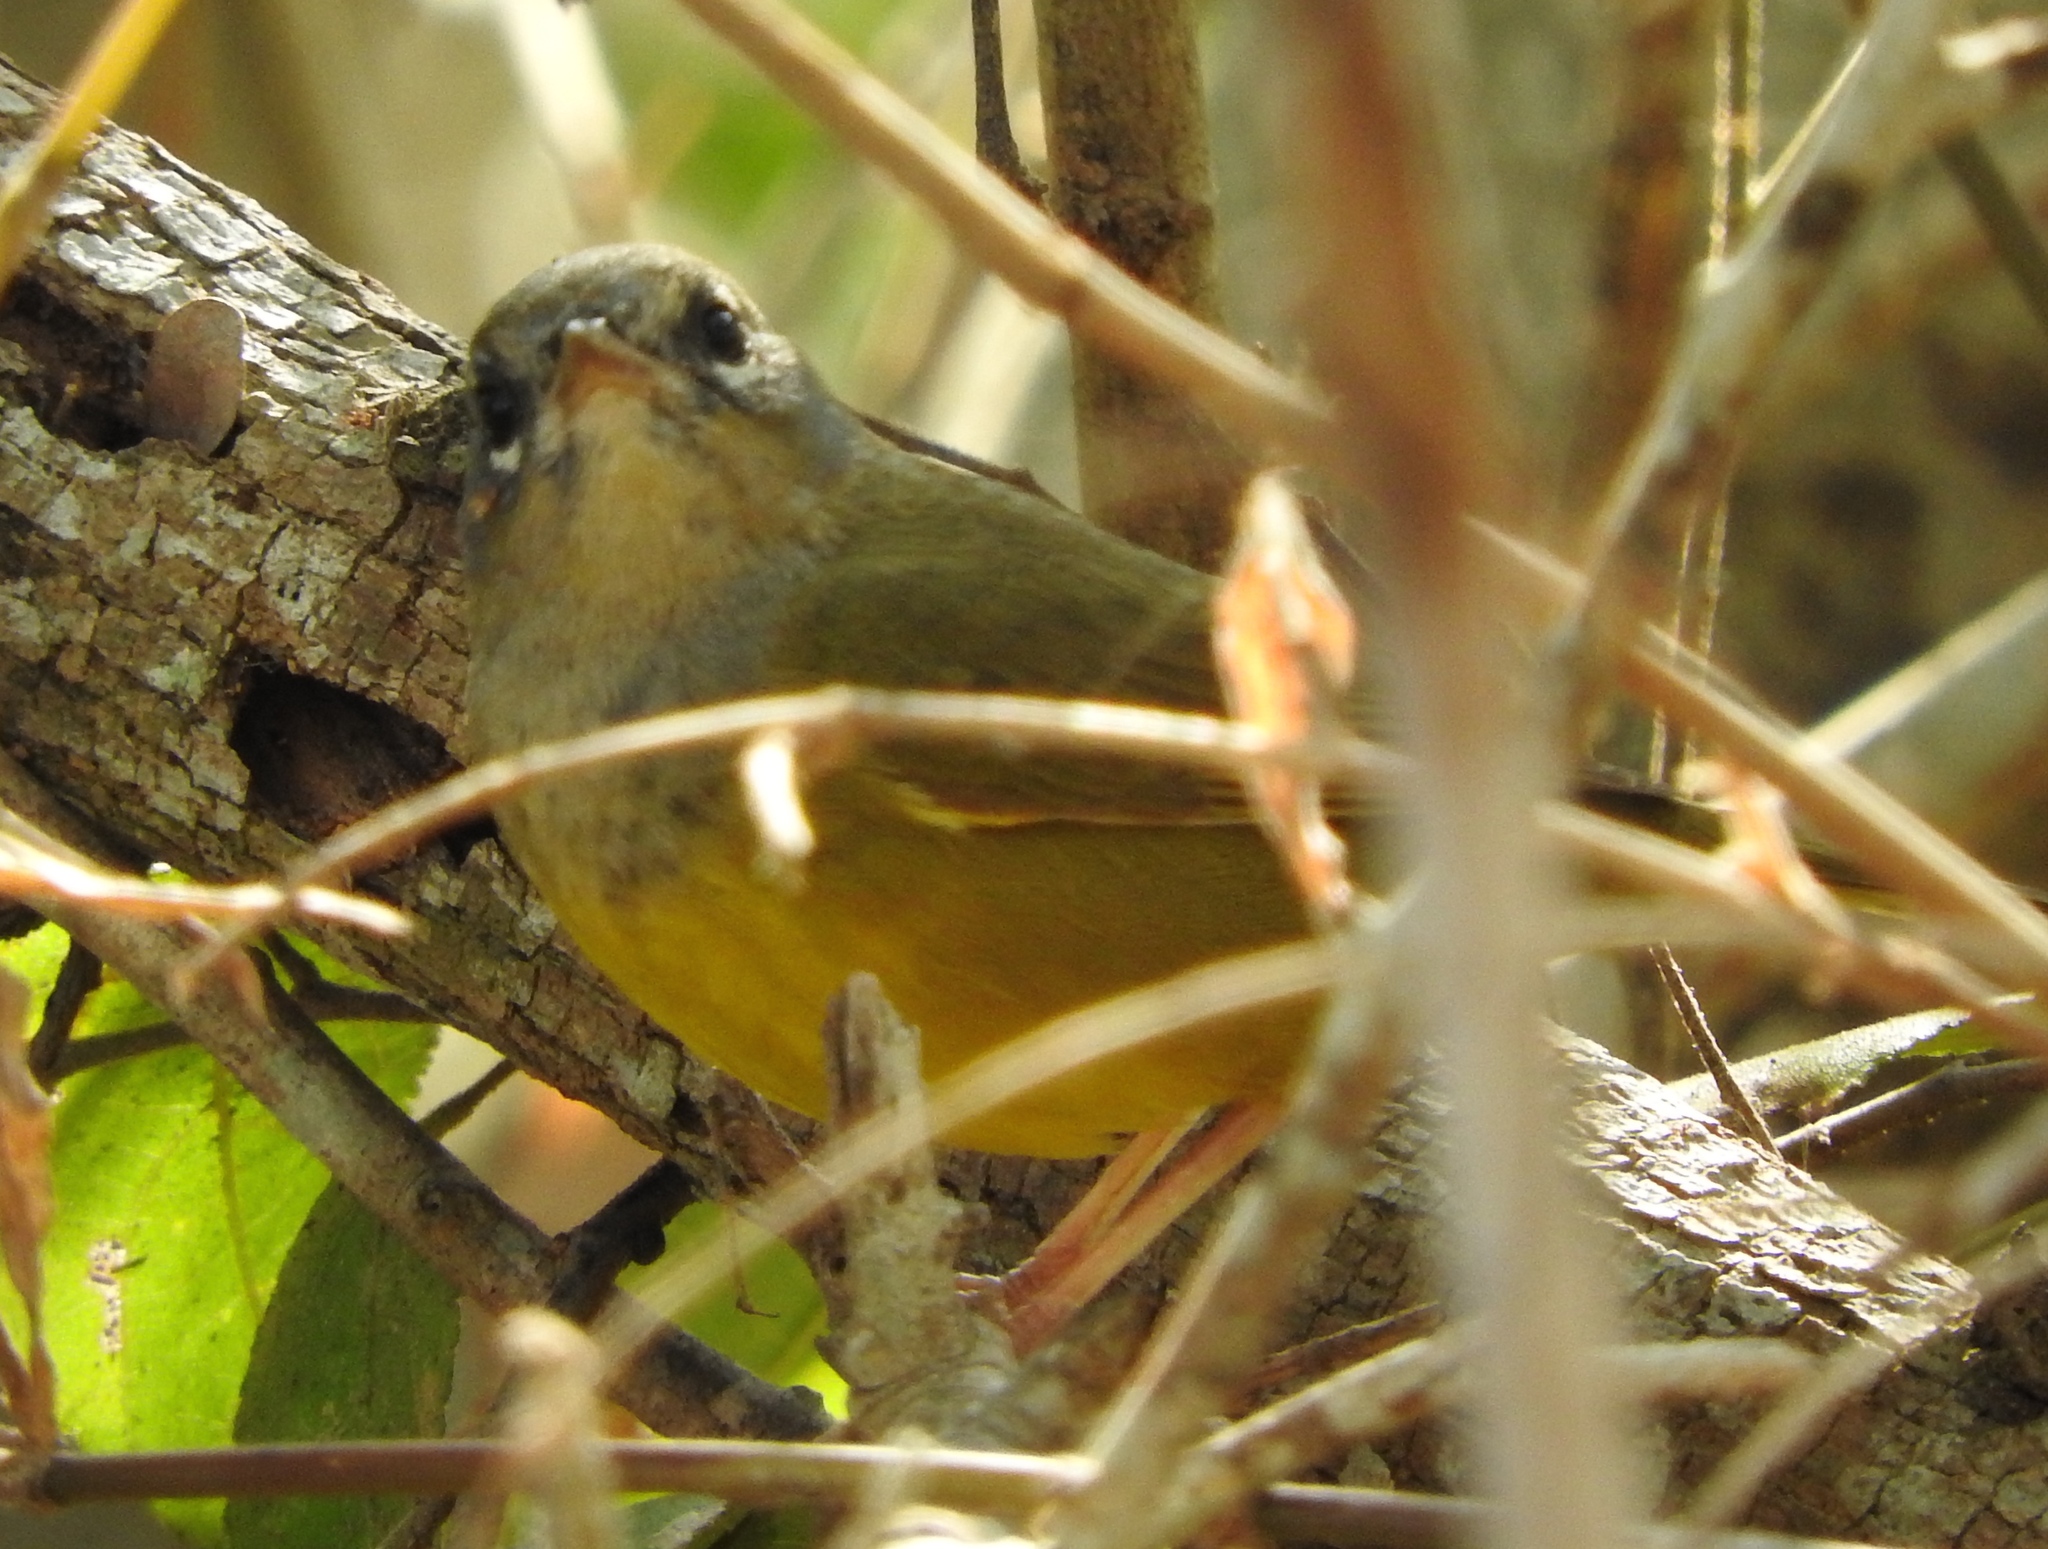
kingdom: Animalia
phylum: Chordata
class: Aves
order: Passeriformes
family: Parulidae
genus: Geothlypis
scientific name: Geothlypis tolmiei
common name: Macgillivray's warbler
